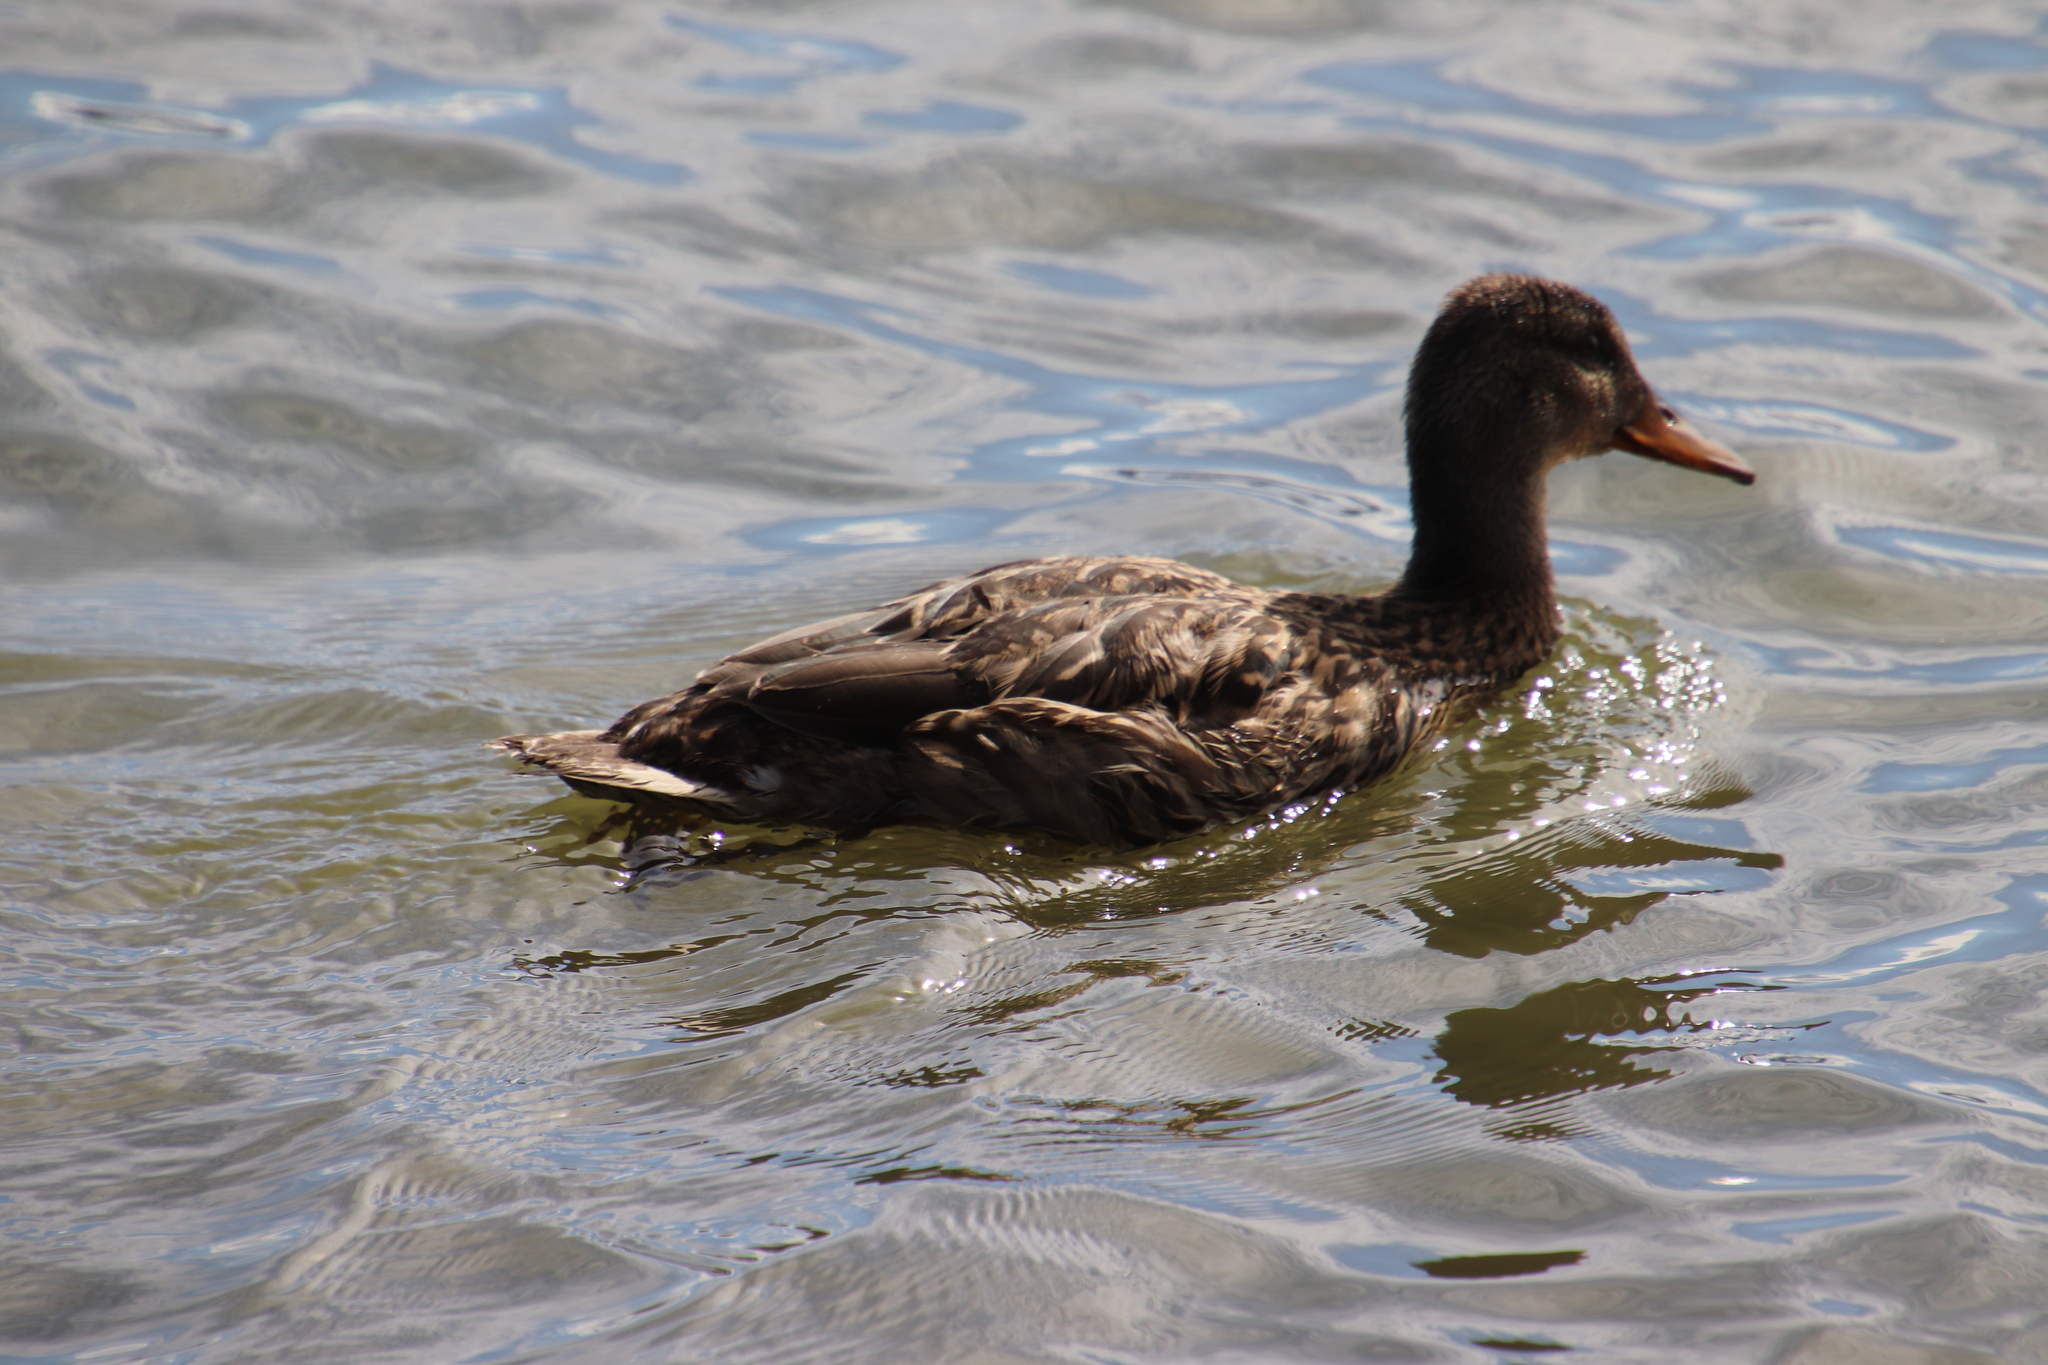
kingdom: Animalia
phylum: Chordata
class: Aves
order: Anseriformes
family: Anatidae
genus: Anas
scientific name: Anas platyrhynchos
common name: Mallard
